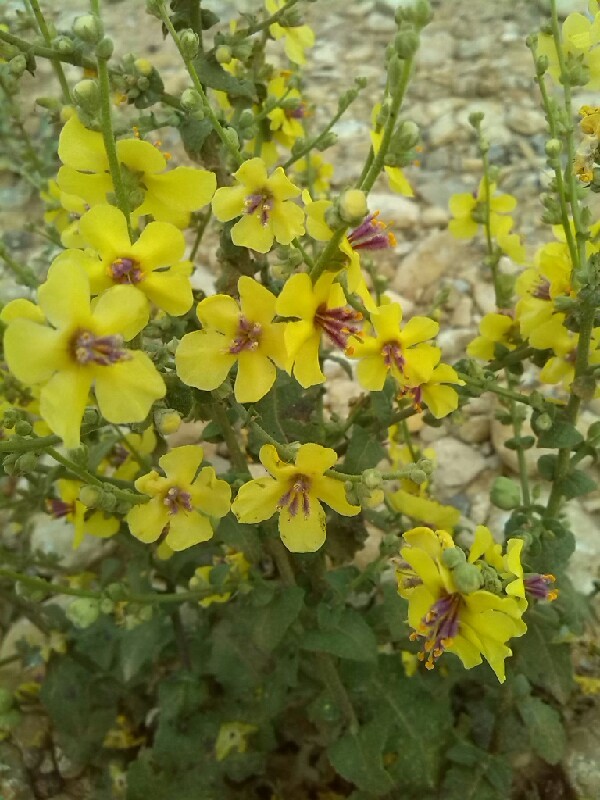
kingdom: Plantae
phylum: Tracheophyta
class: Magnoliopsida
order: Lamiales
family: Scrophulariaceae
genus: Verbascum
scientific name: Verbascum sinuatum
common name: Wavyleaf mullein
